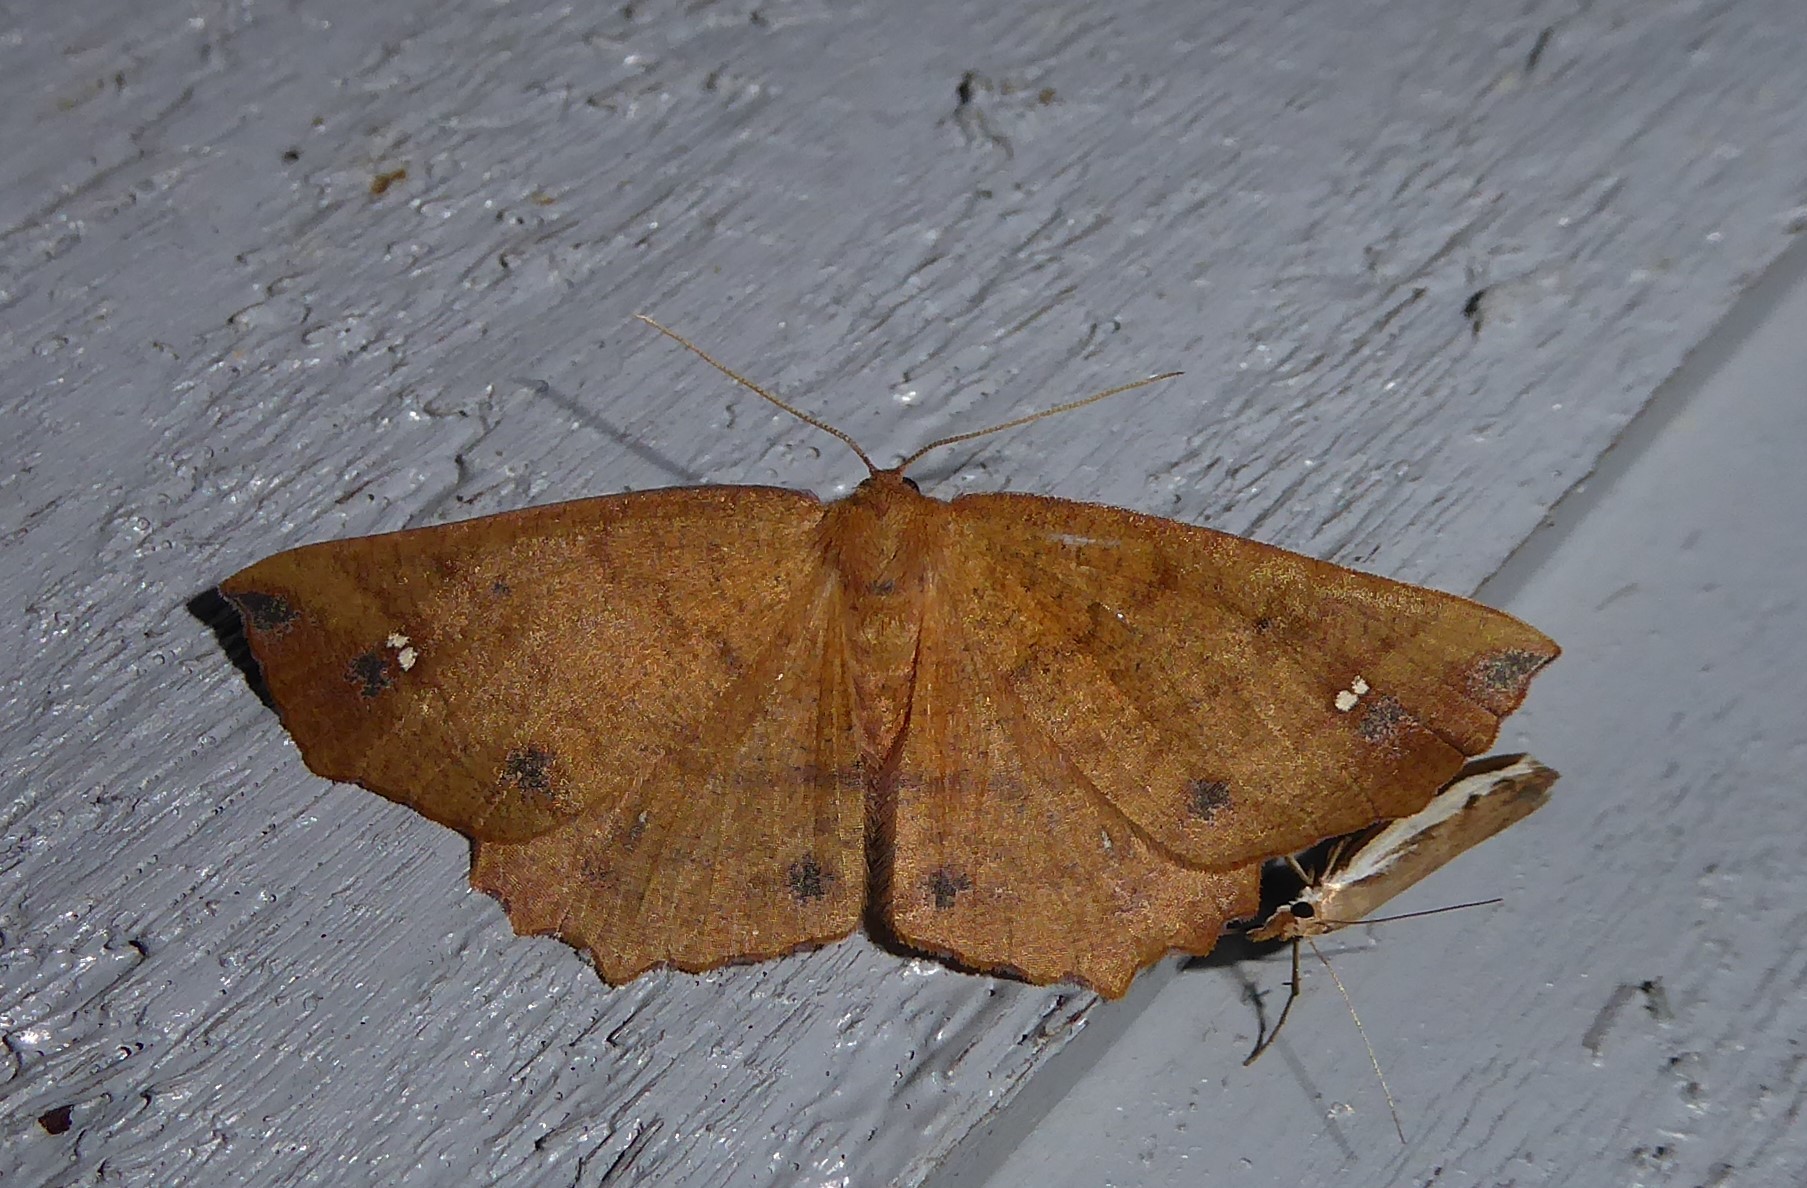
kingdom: Animalia
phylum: Arthropoda
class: Insecta
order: Lepidoptera
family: Geometridae
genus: Xyridacma
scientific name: Xyridacma ustaria
